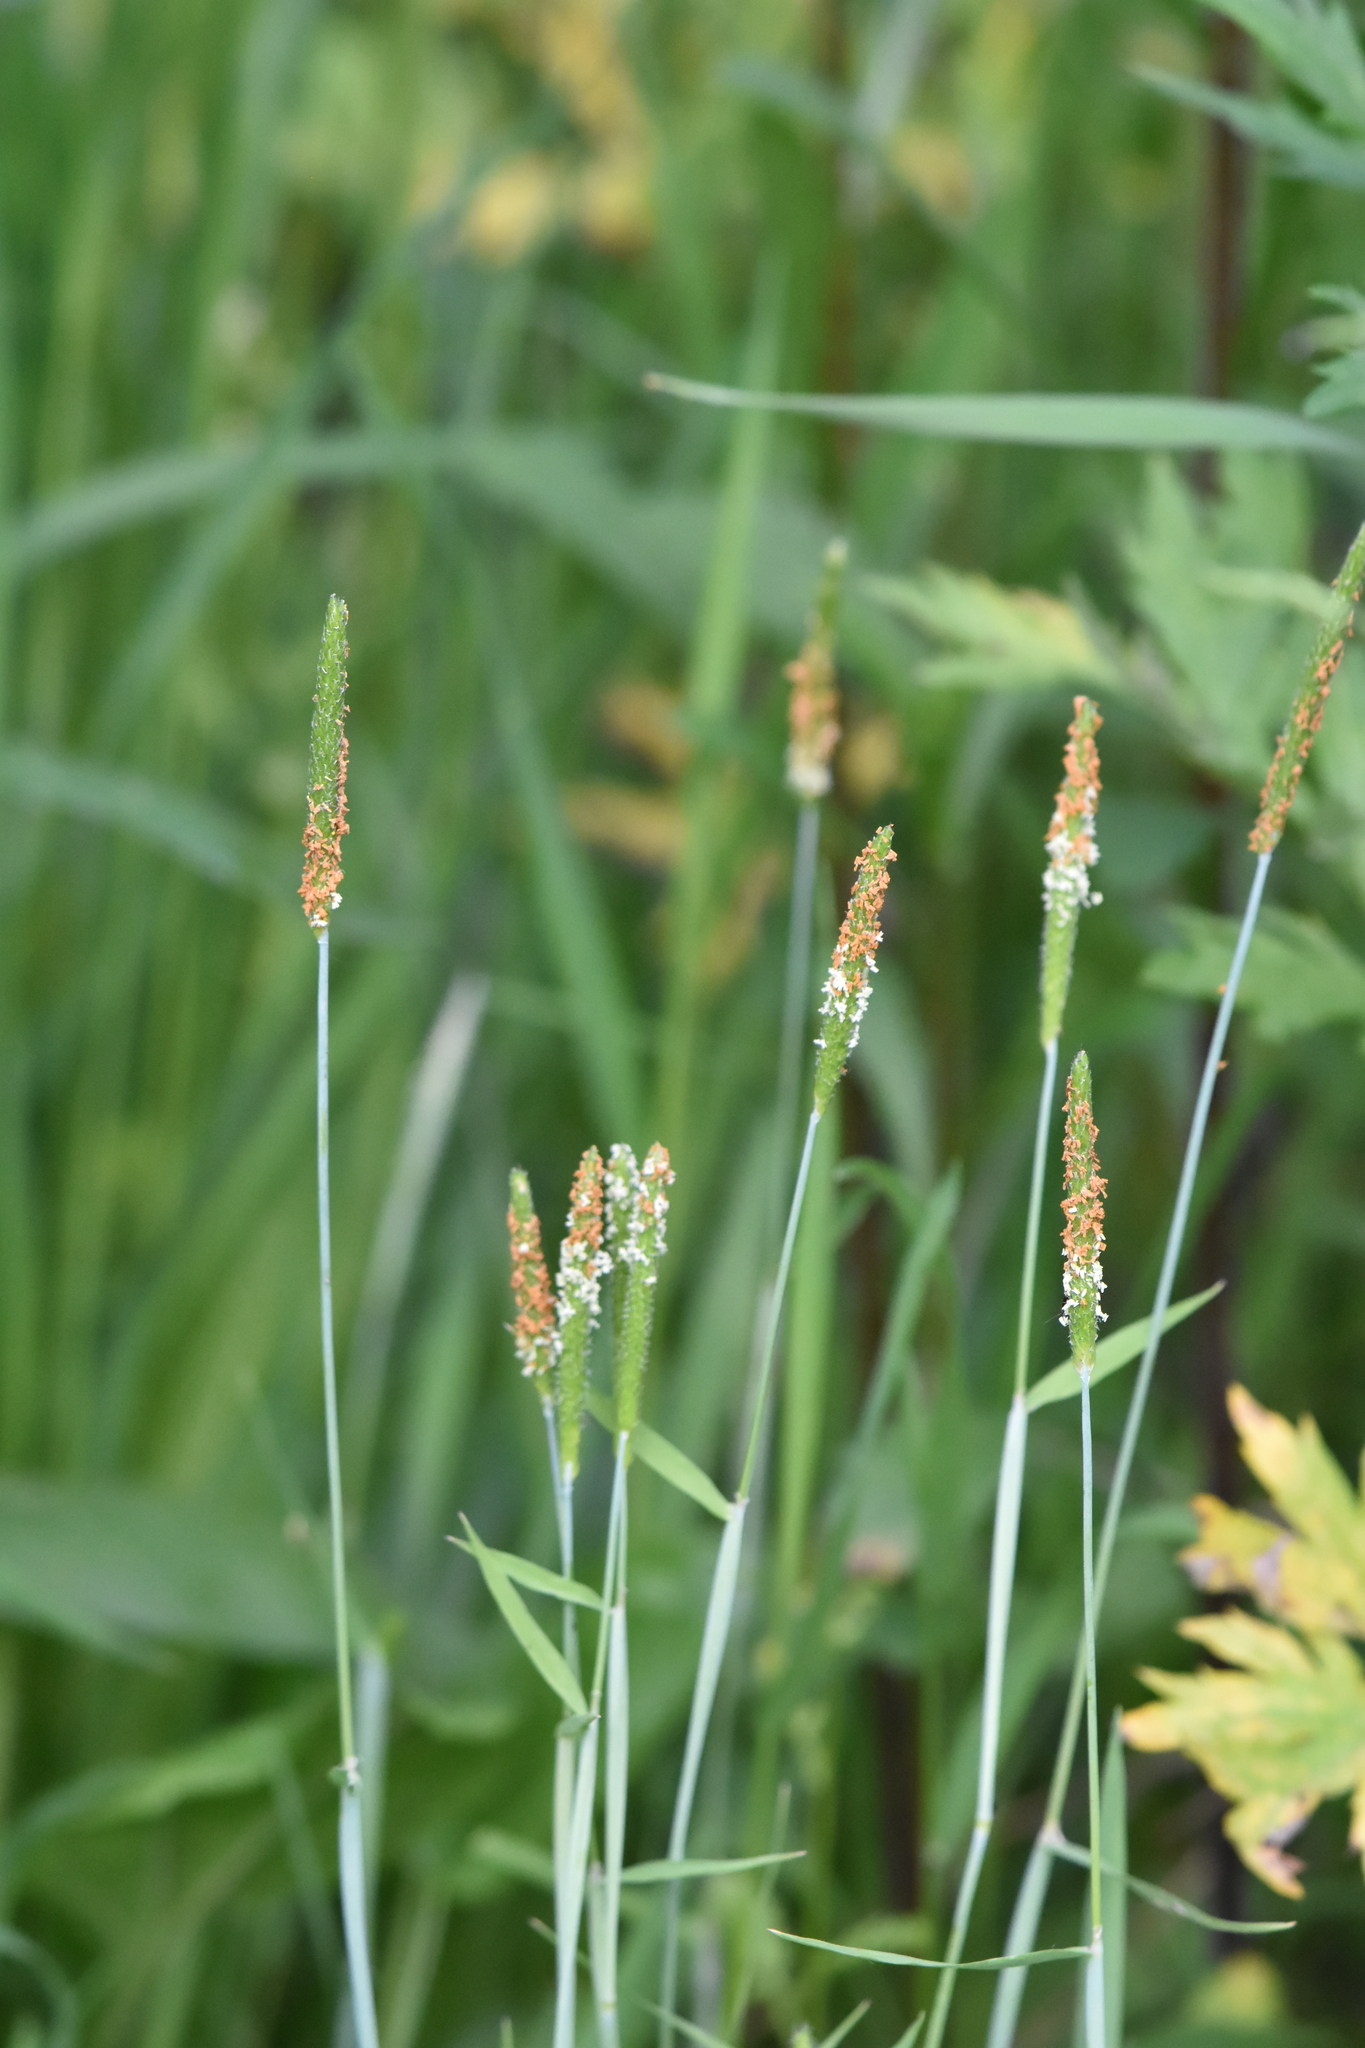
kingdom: Plantae
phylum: Tracheophyta
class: Liliopsida
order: Poales
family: Poaceae
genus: Alopecurus
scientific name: Alopecurus aequalis
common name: Orange foxtail
